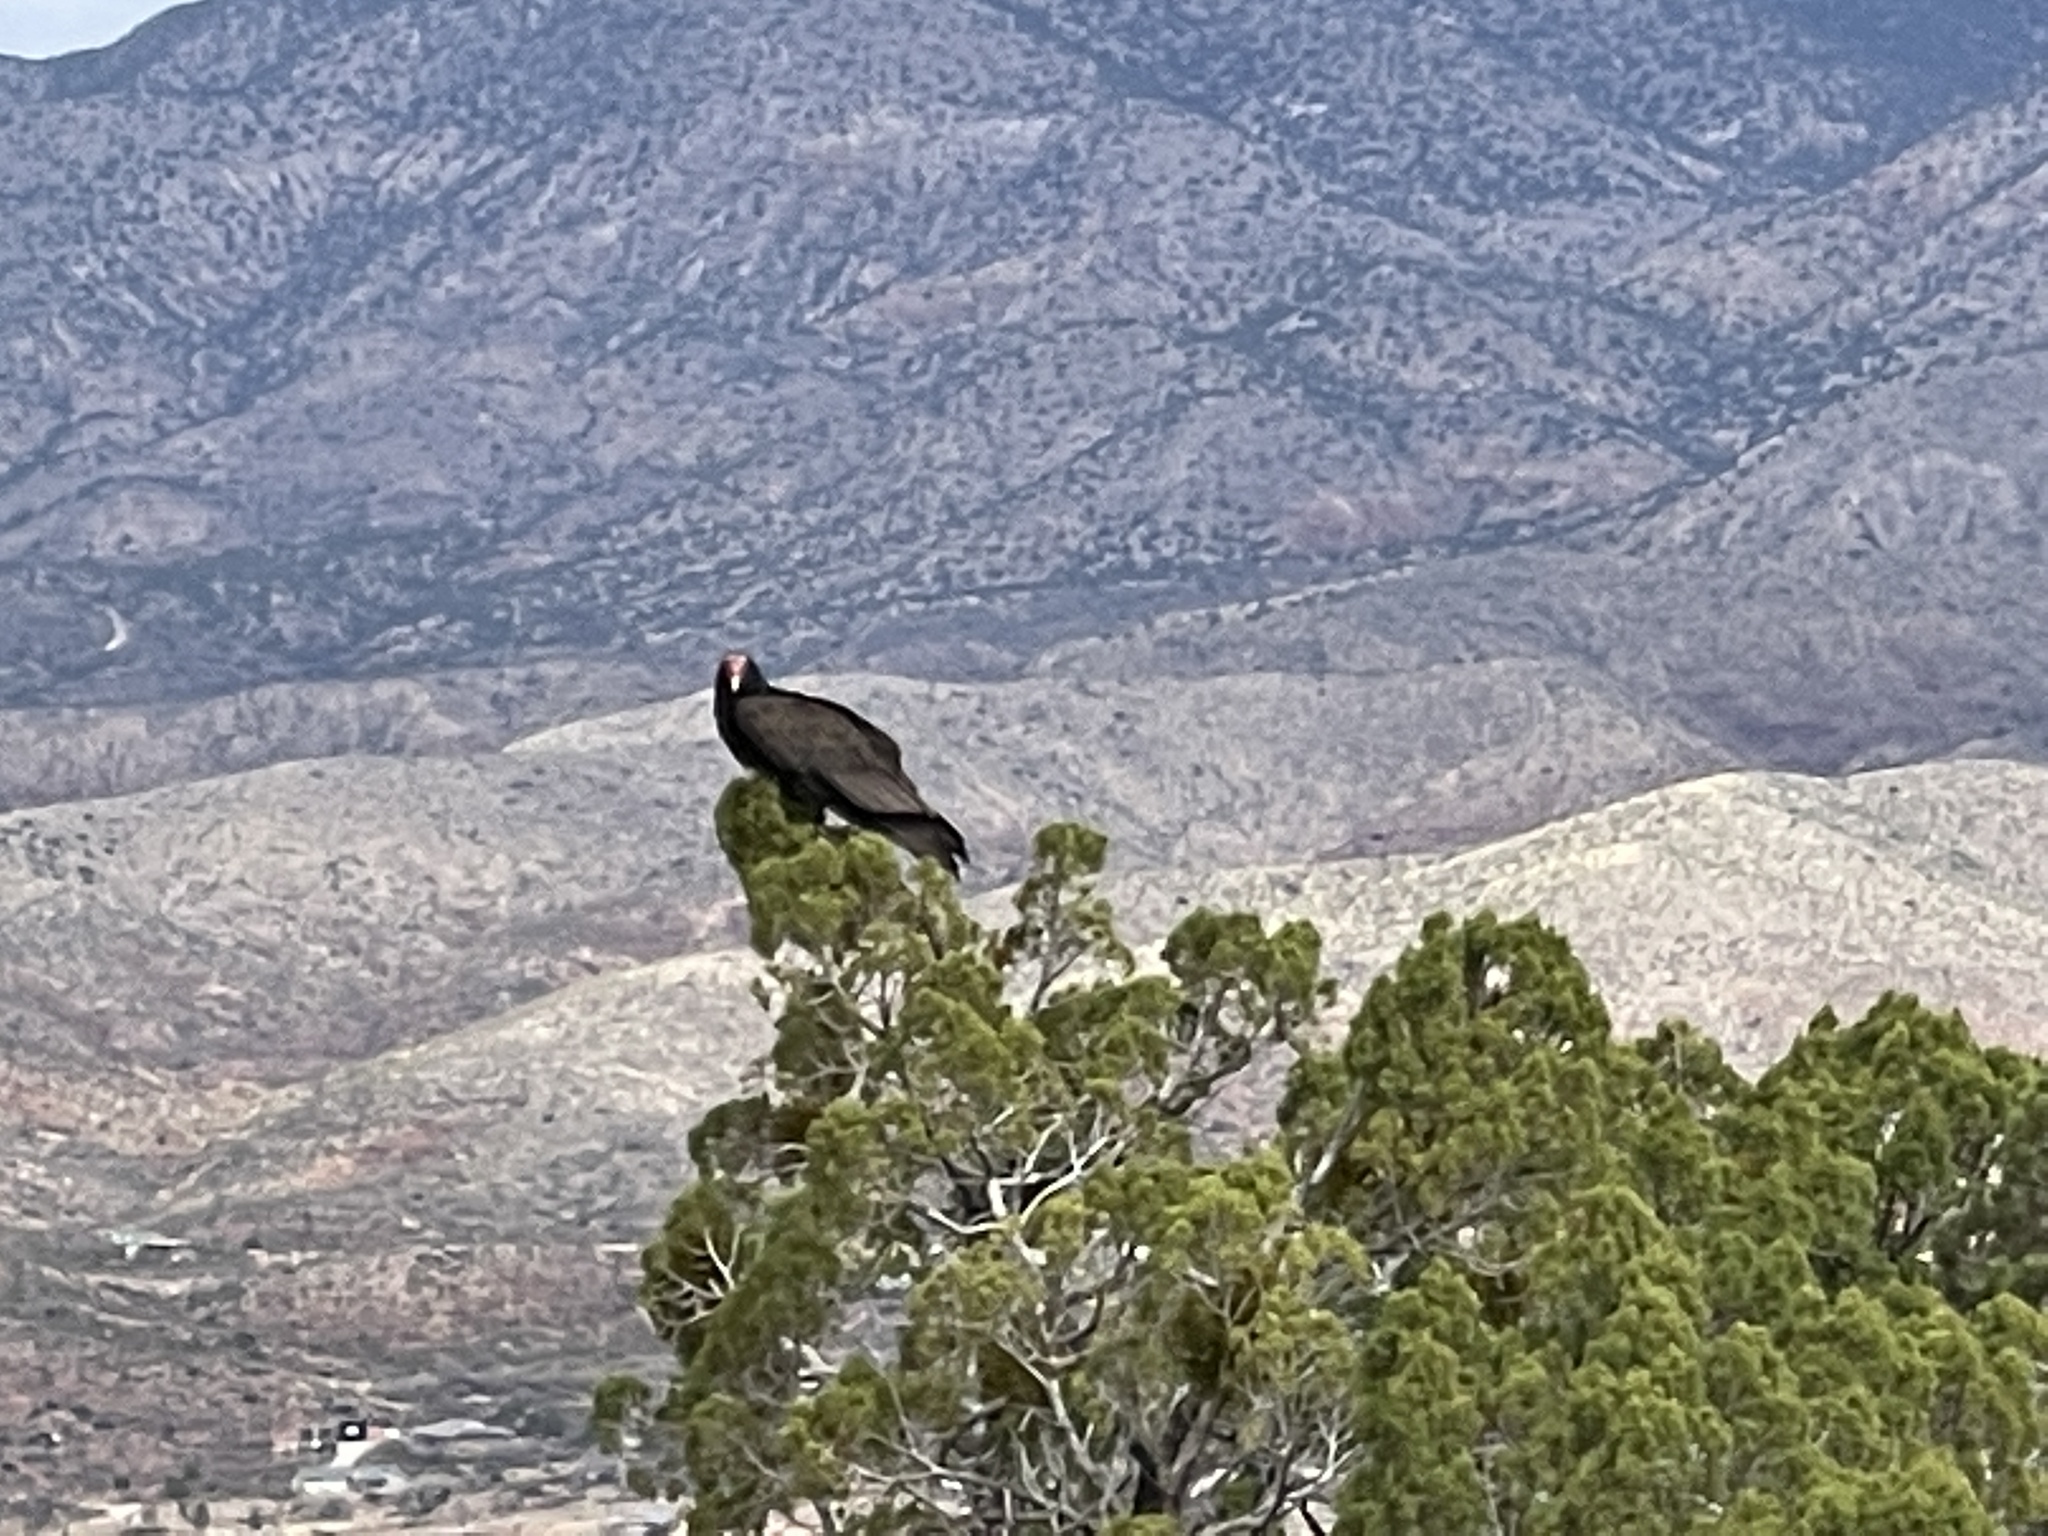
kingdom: Animalia
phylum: Chordata
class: Aves
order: Accipitriformes
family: Cathartidae
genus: Cathartes
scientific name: Cathartes aura
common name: Turkey vulture
